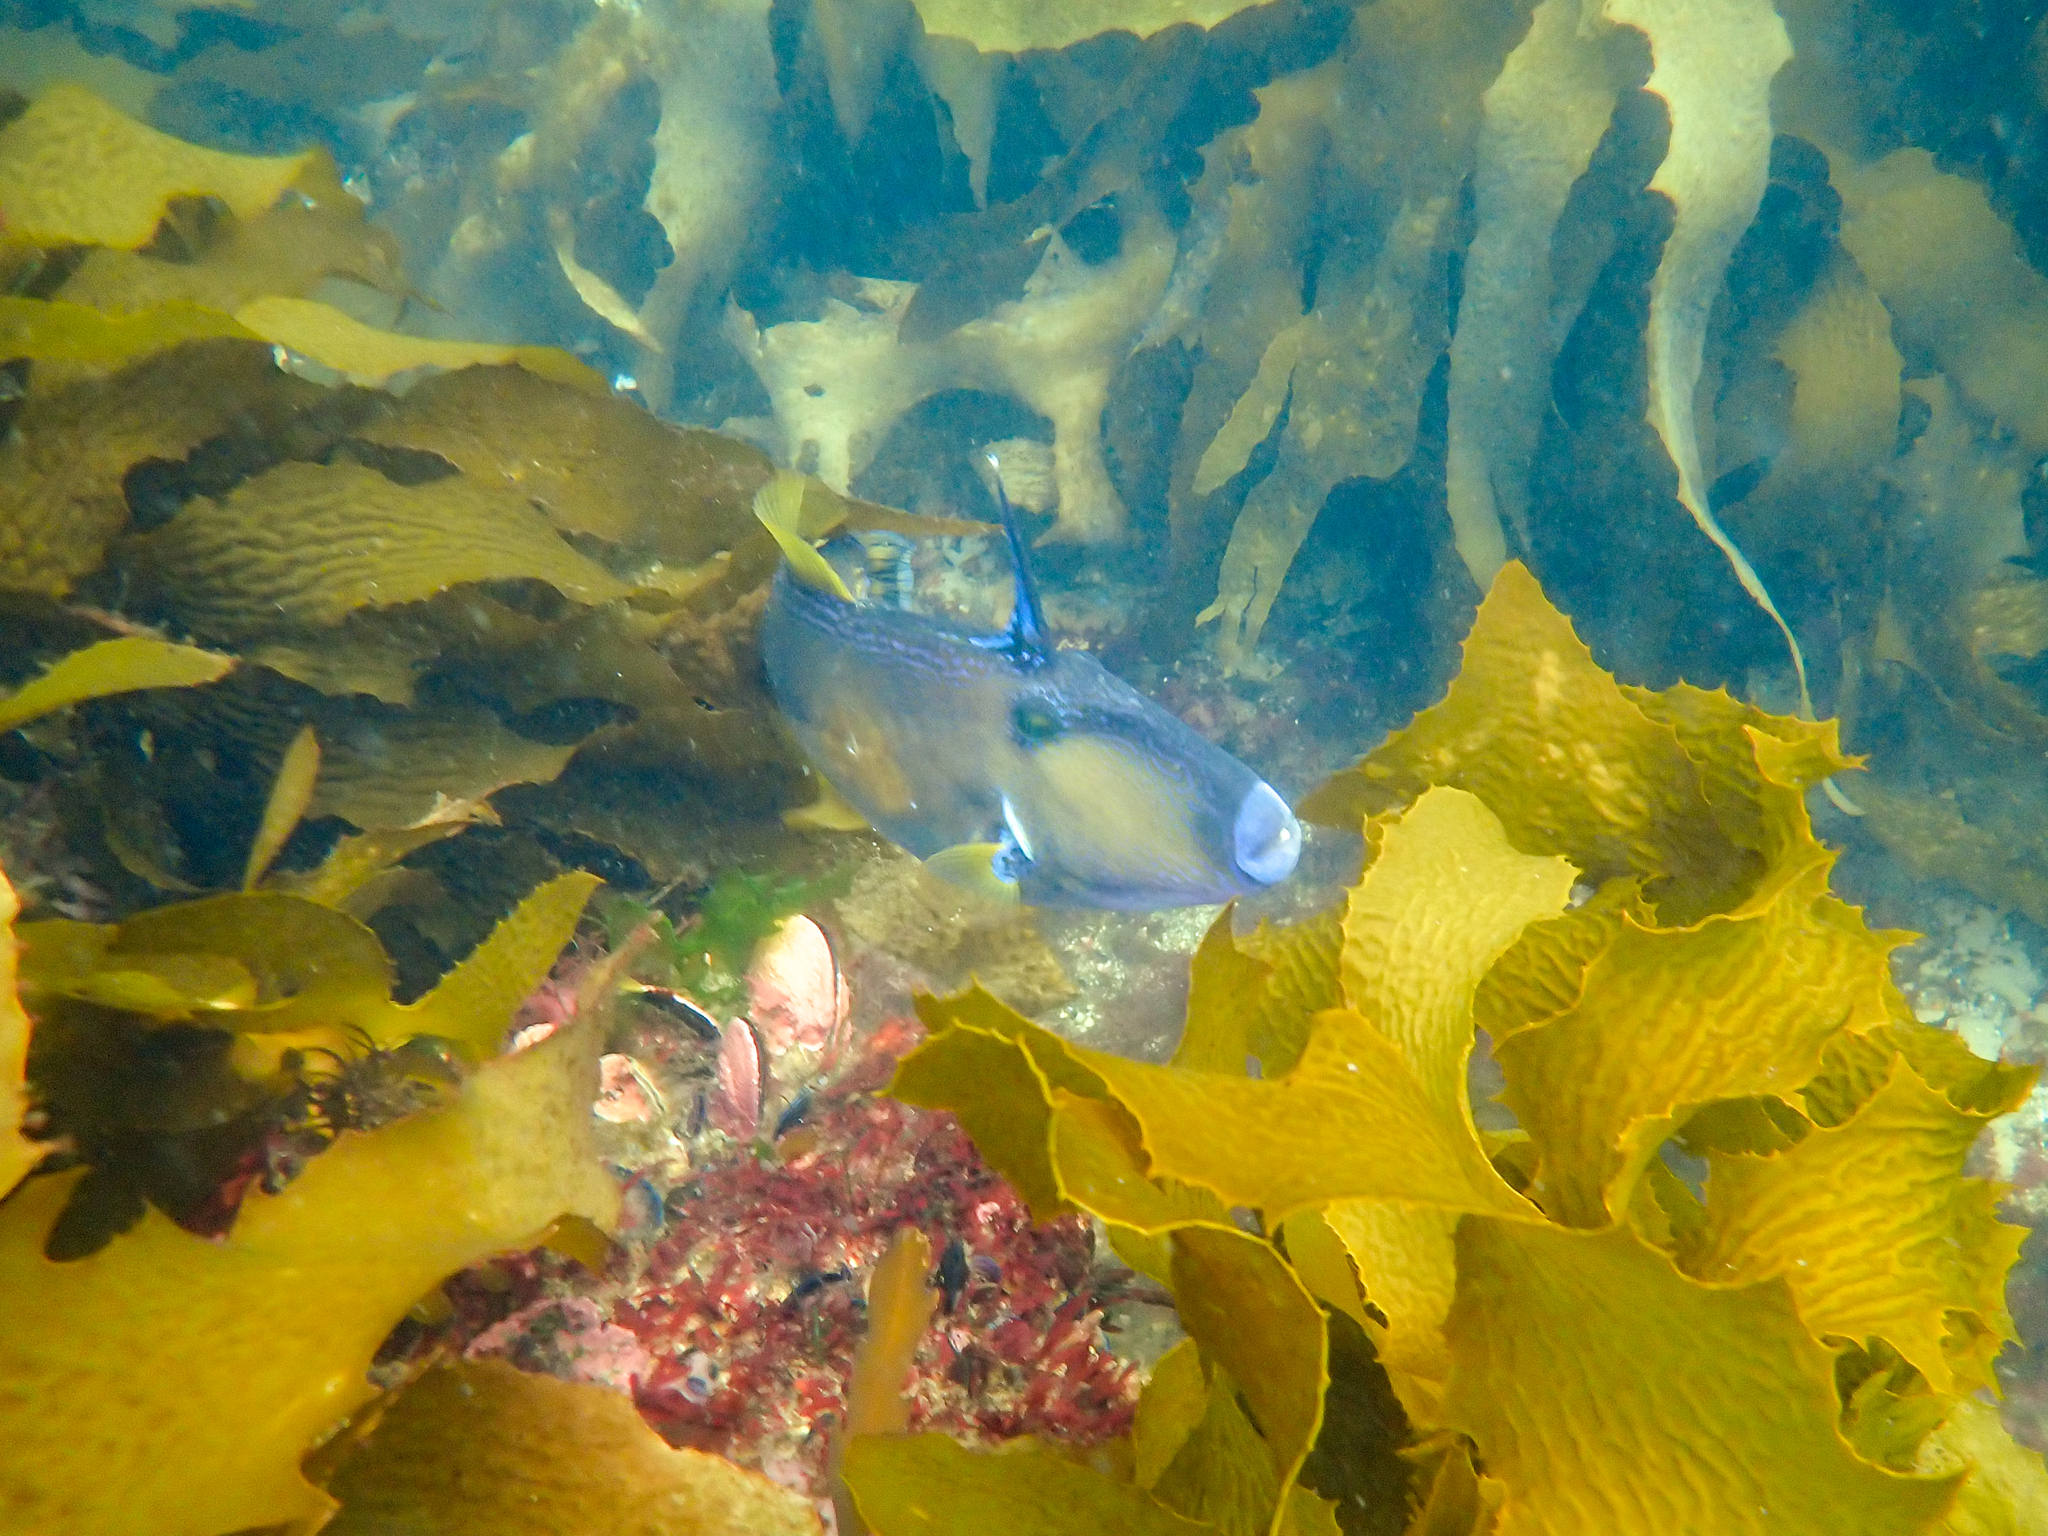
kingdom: Animalia
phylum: Chordata
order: Tetraodontiformes
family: Monacanthidae
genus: Meuschenia
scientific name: Meuschenia freycineti
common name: Freycinet's leatherjacket
